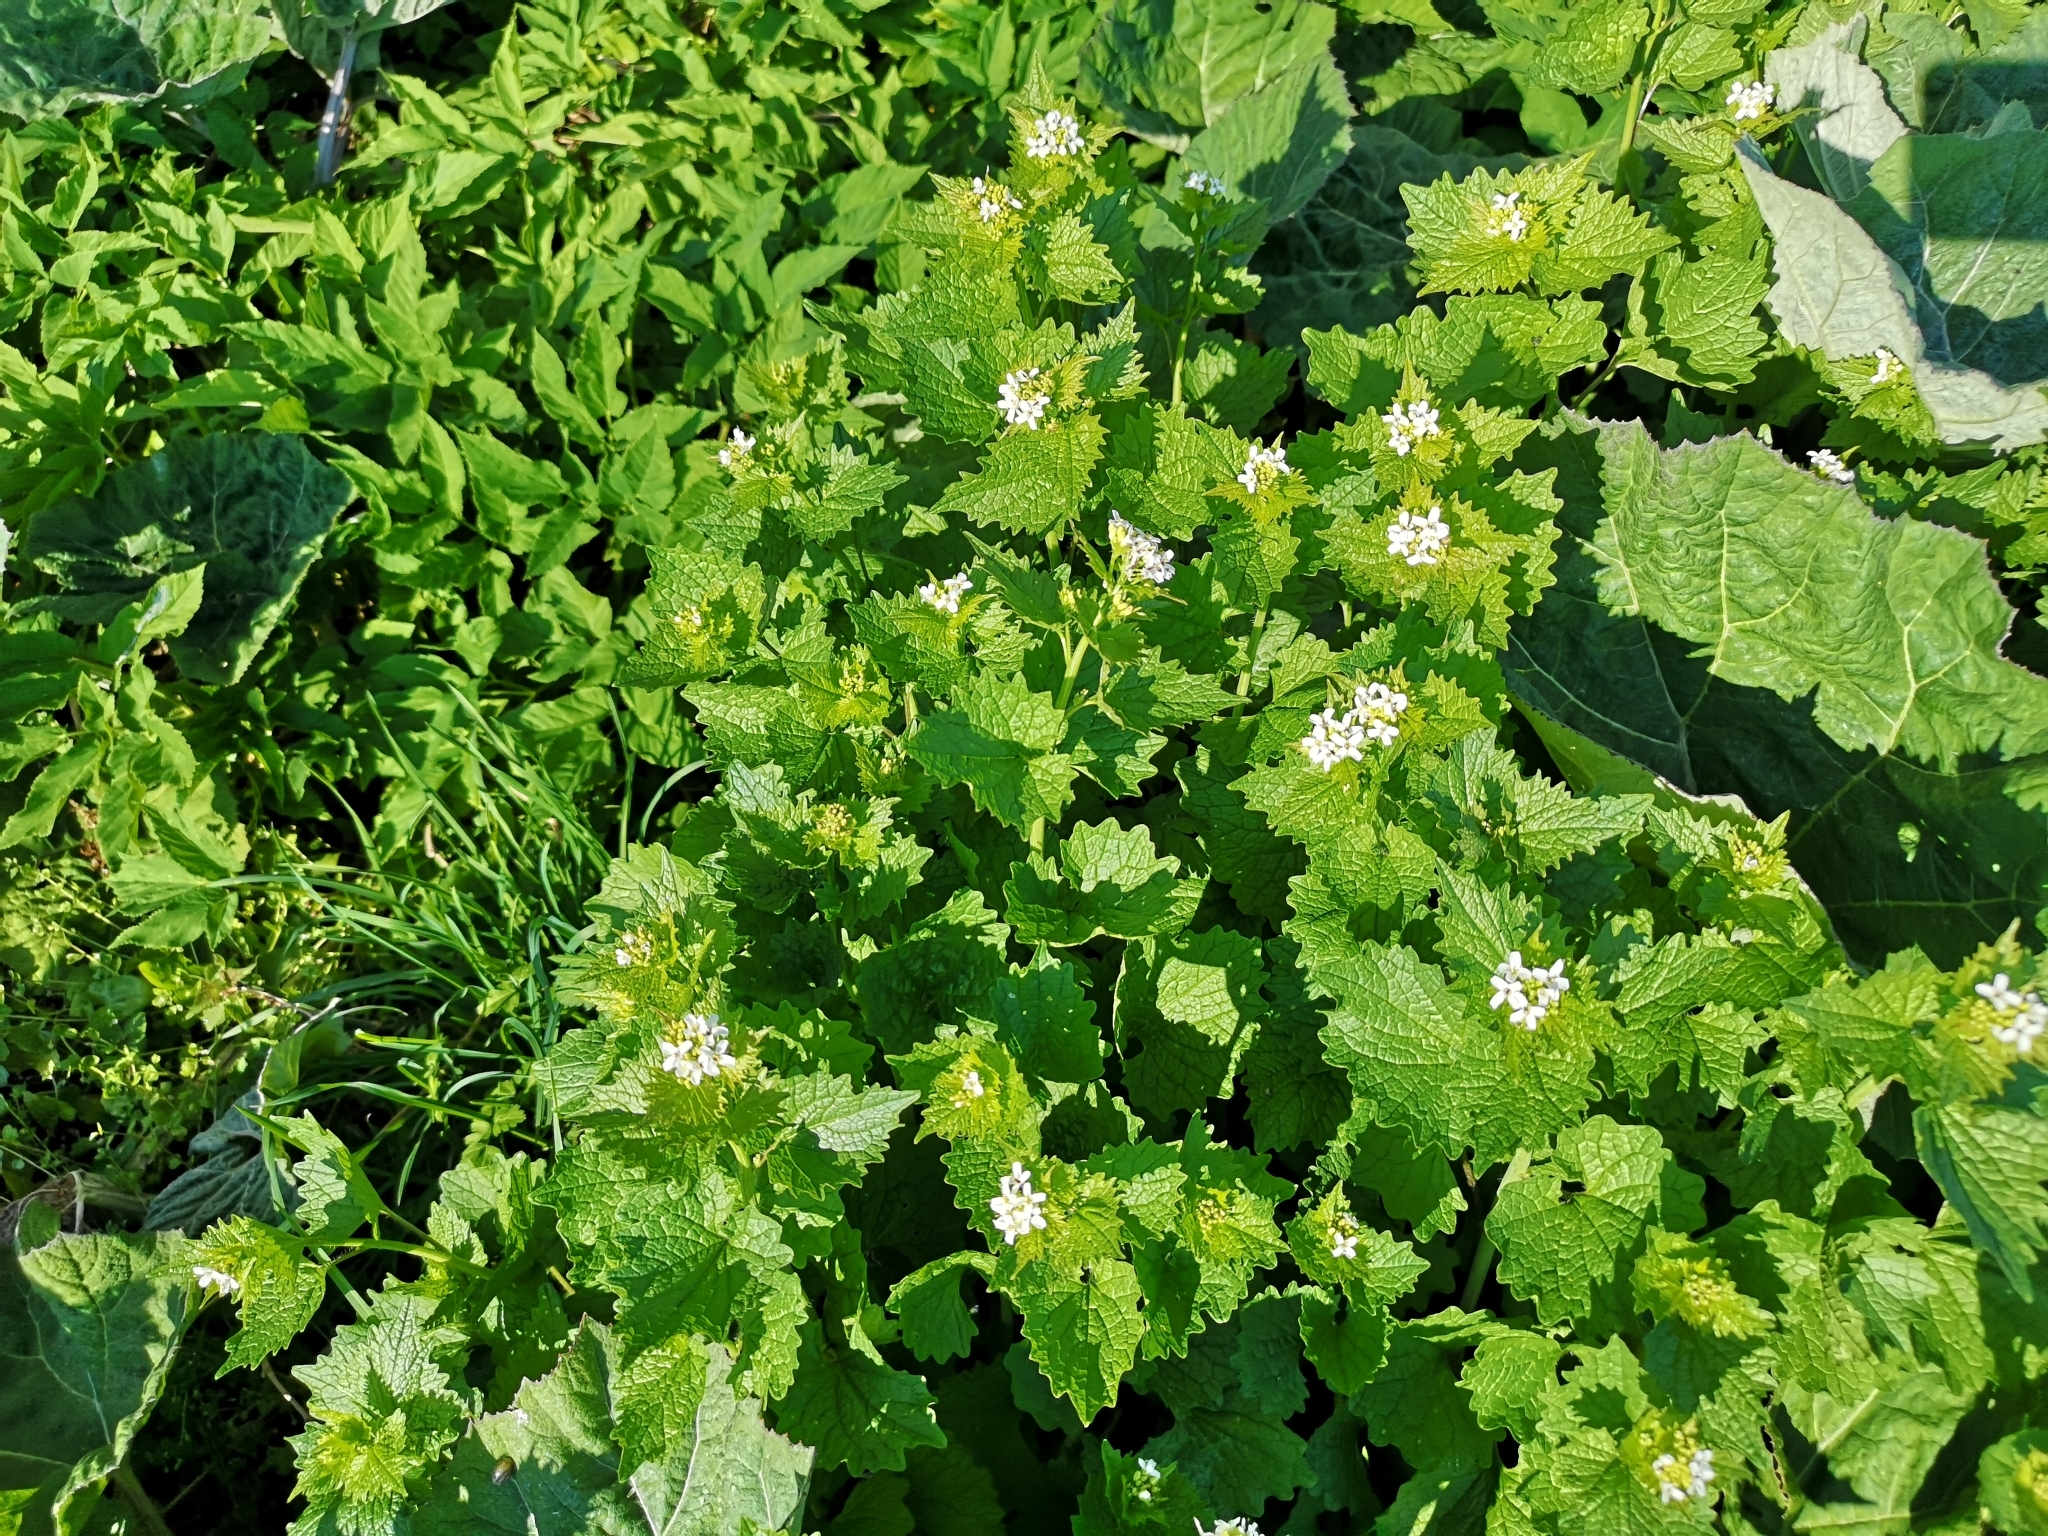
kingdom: Plantae
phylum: Tracheophyta
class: Magnoliopsida
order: Brassicales
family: Brassicaceae
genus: Alliaria
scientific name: Alliaria petiolata
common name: Garlic mustard
